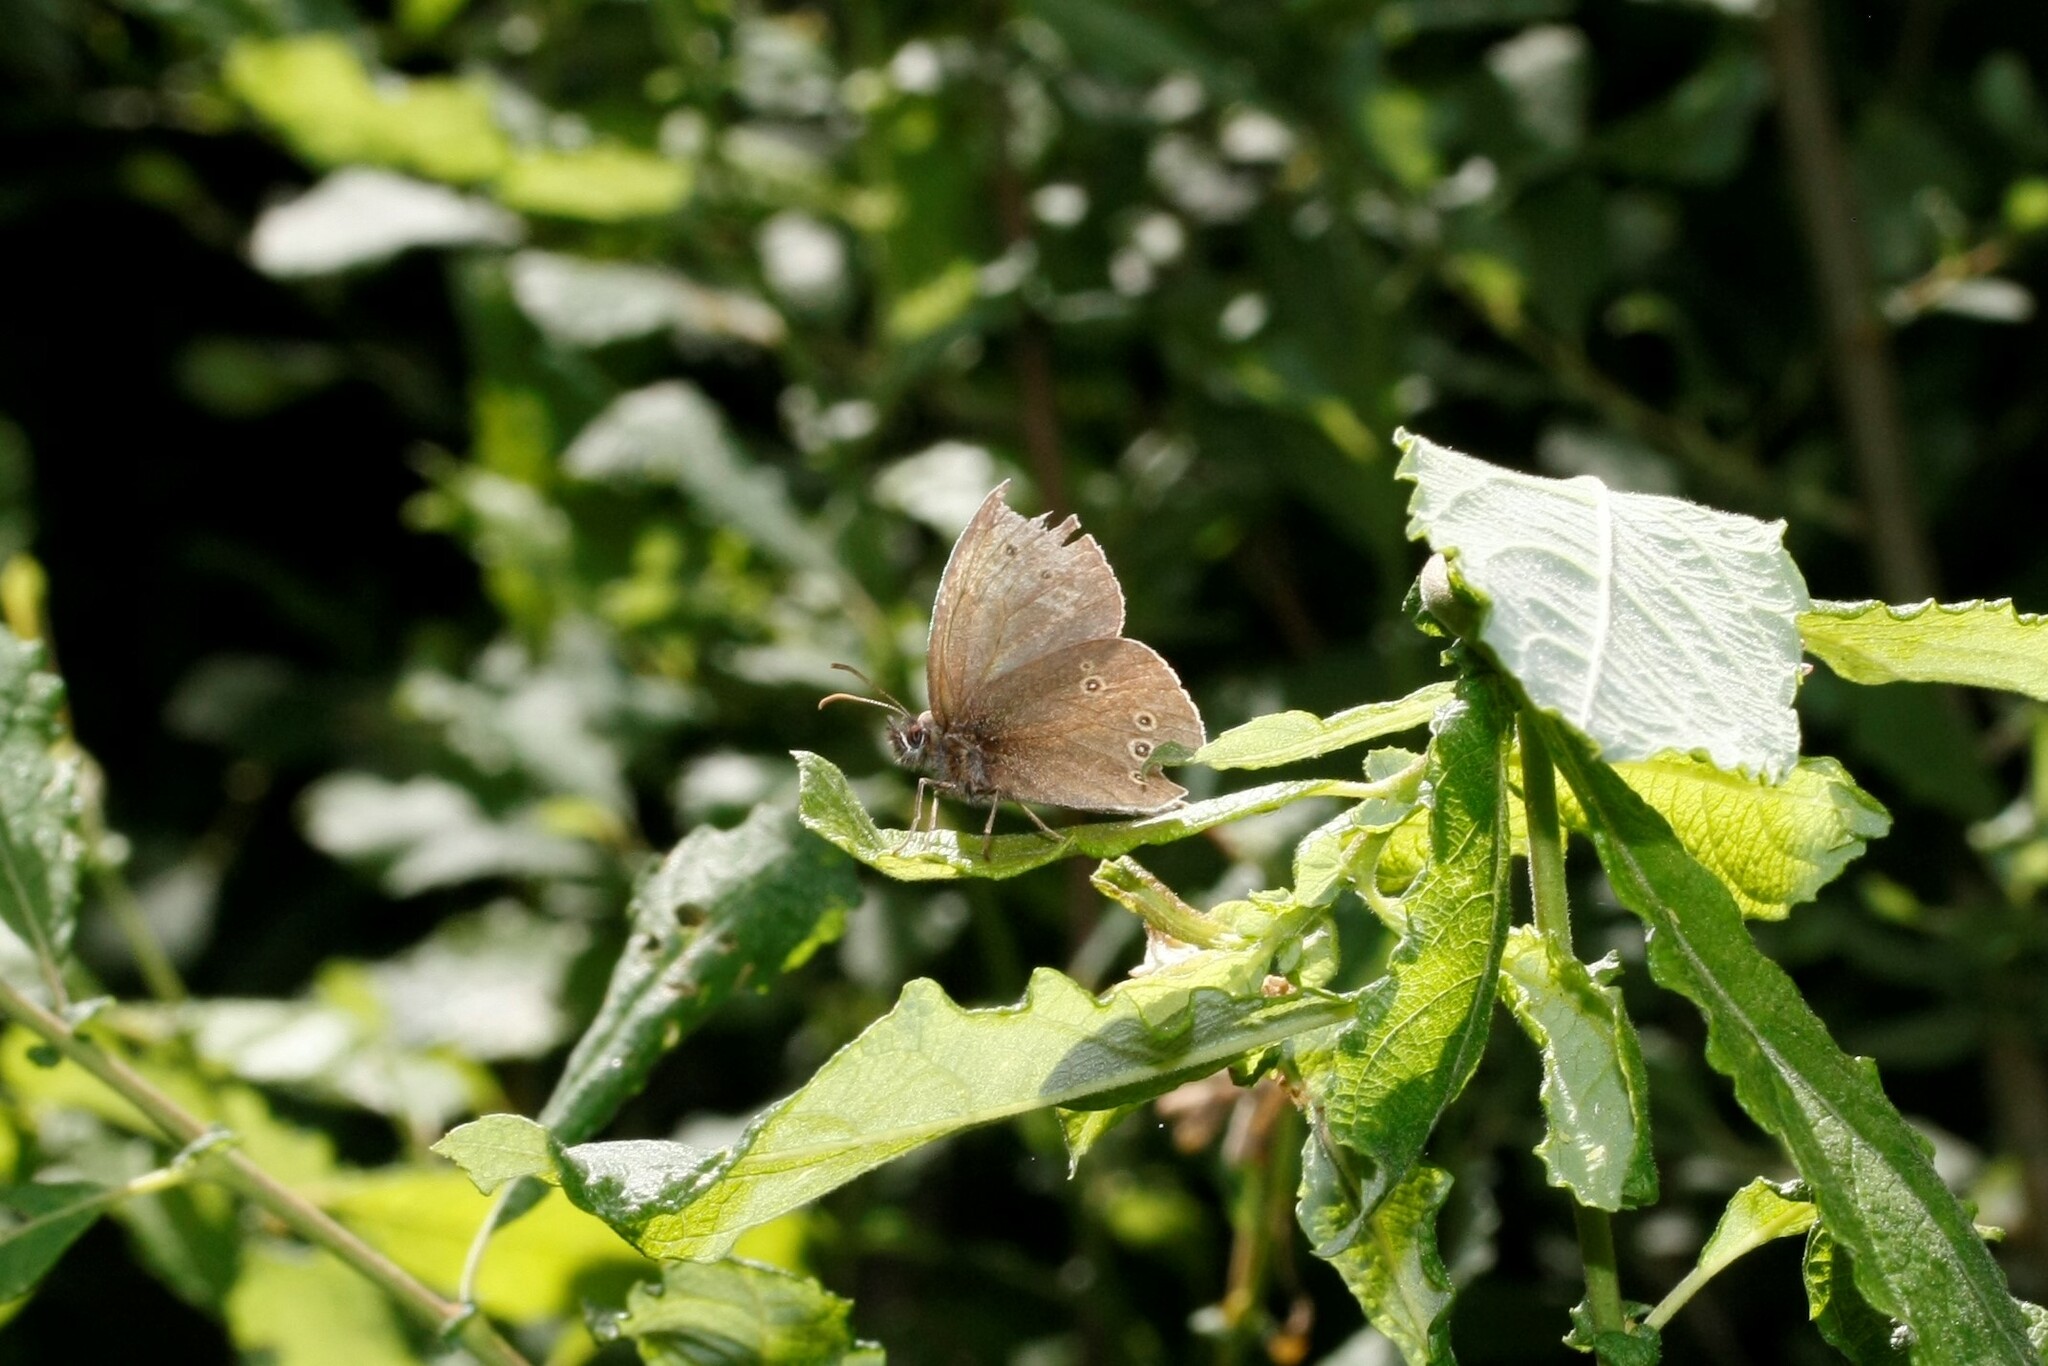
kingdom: Animalia
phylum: Arthropoda
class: Insecta
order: Lepidoptera
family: Nymphalidae
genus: Aphantopus
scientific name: Aphantopus hyperantus
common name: Ringlet
